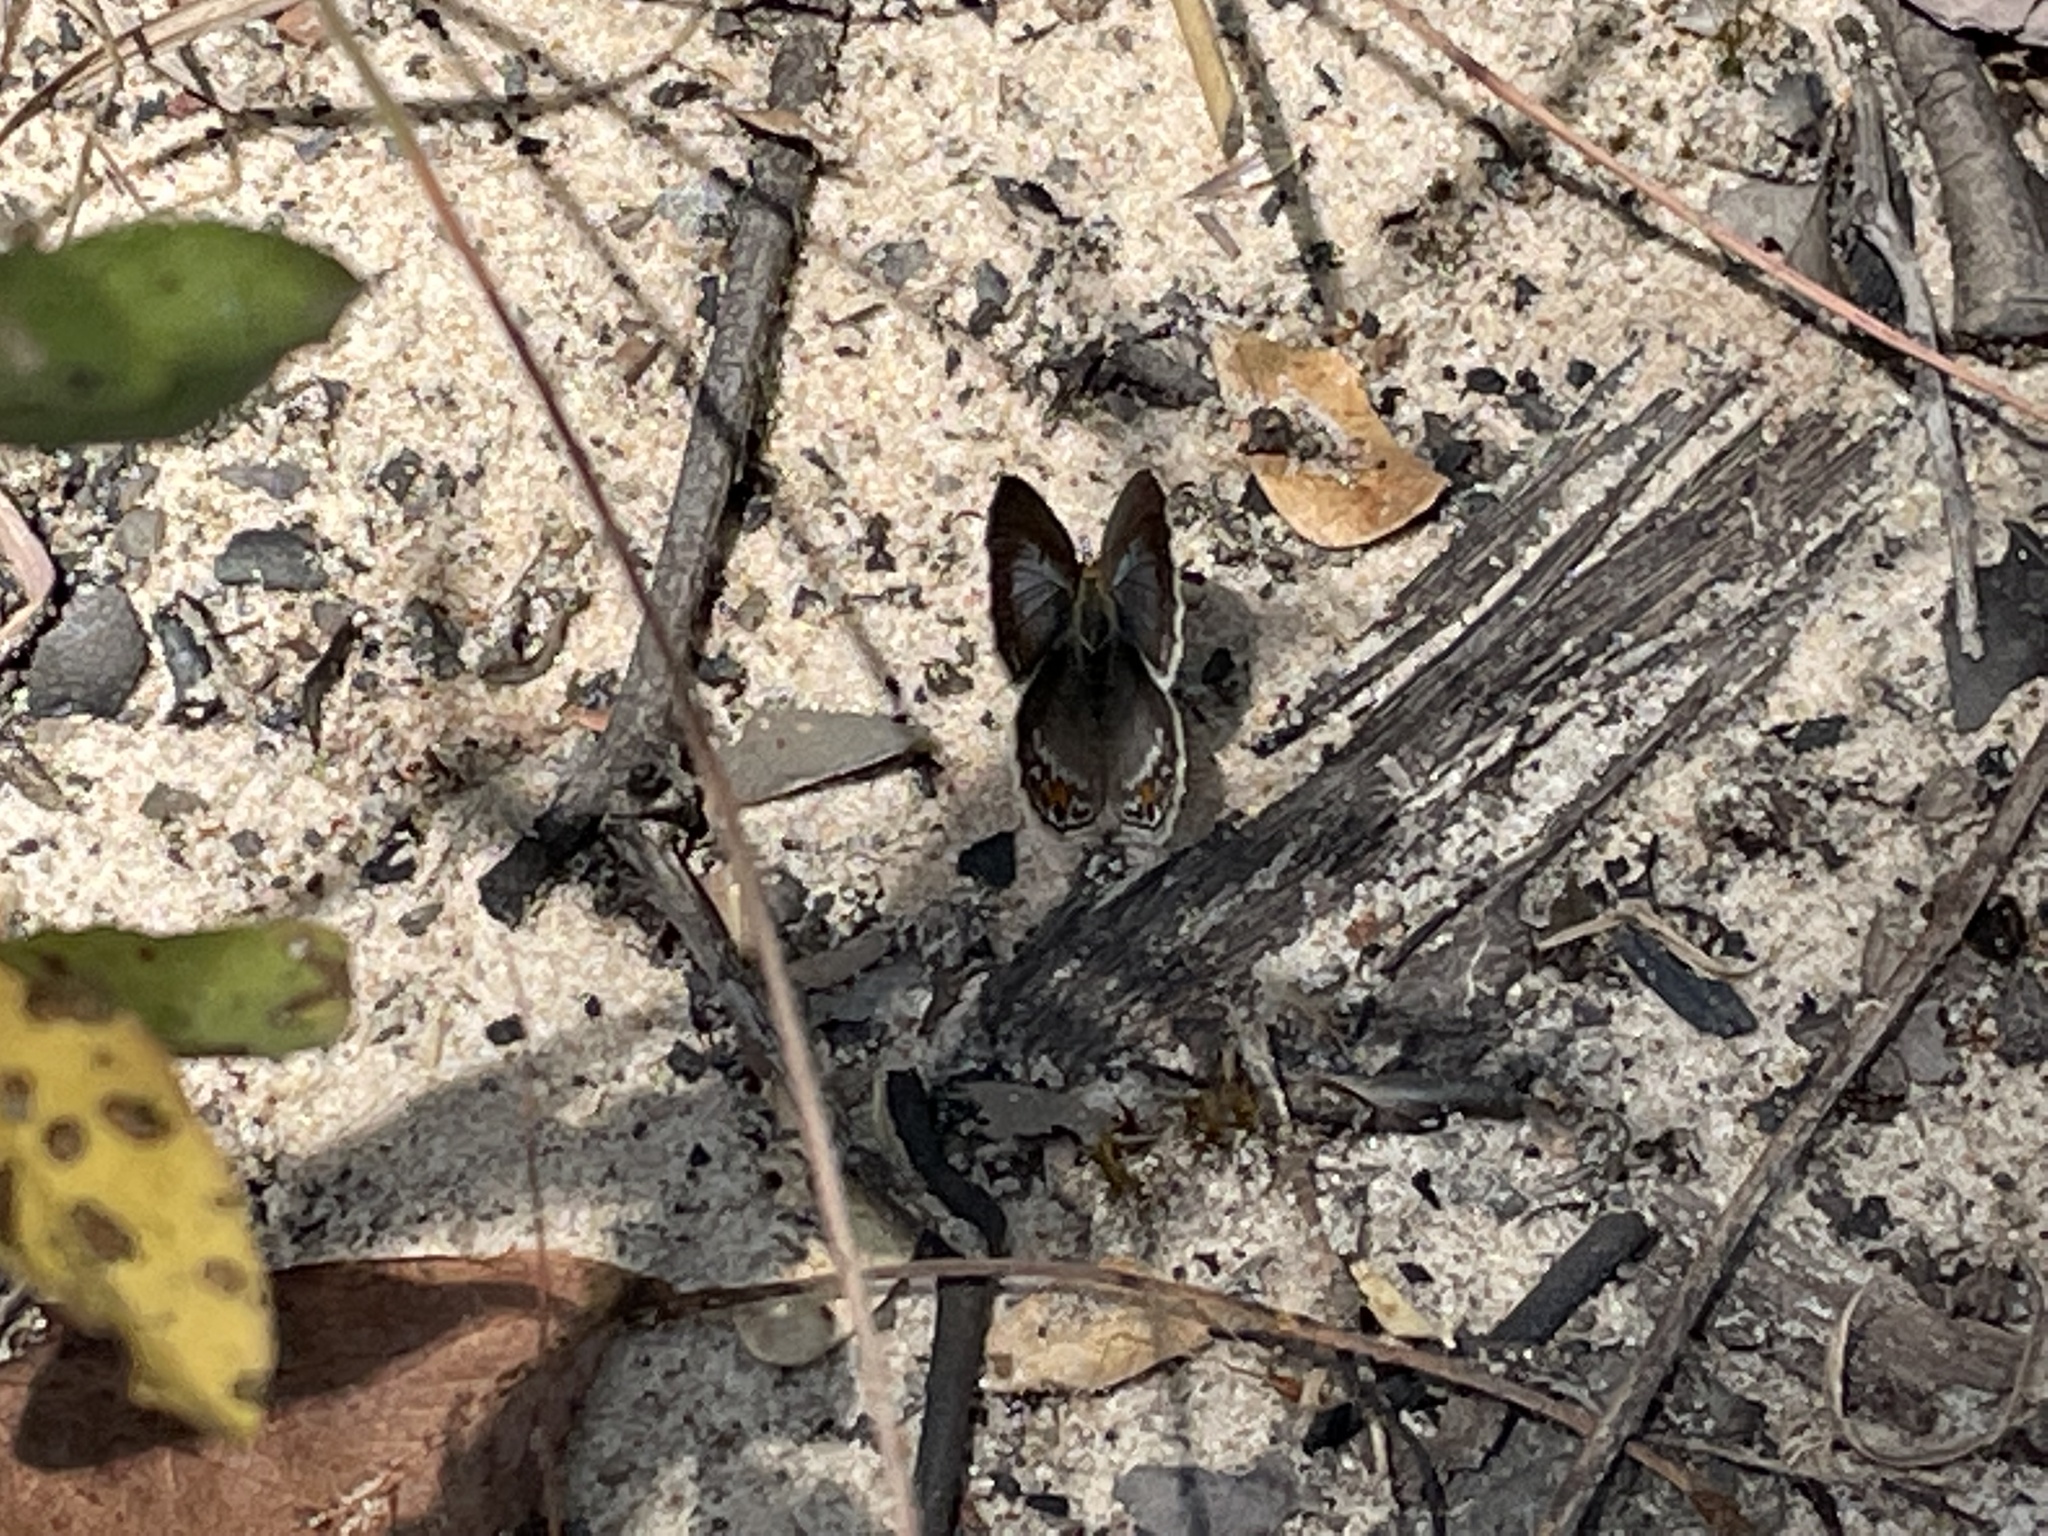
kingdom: Animalia
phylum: Arthropoda
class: Insecta
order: Lepidoptera
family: Lycaenidae
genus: Euchrysops
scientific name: Euchrysops malathana
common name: Common smoky blue
